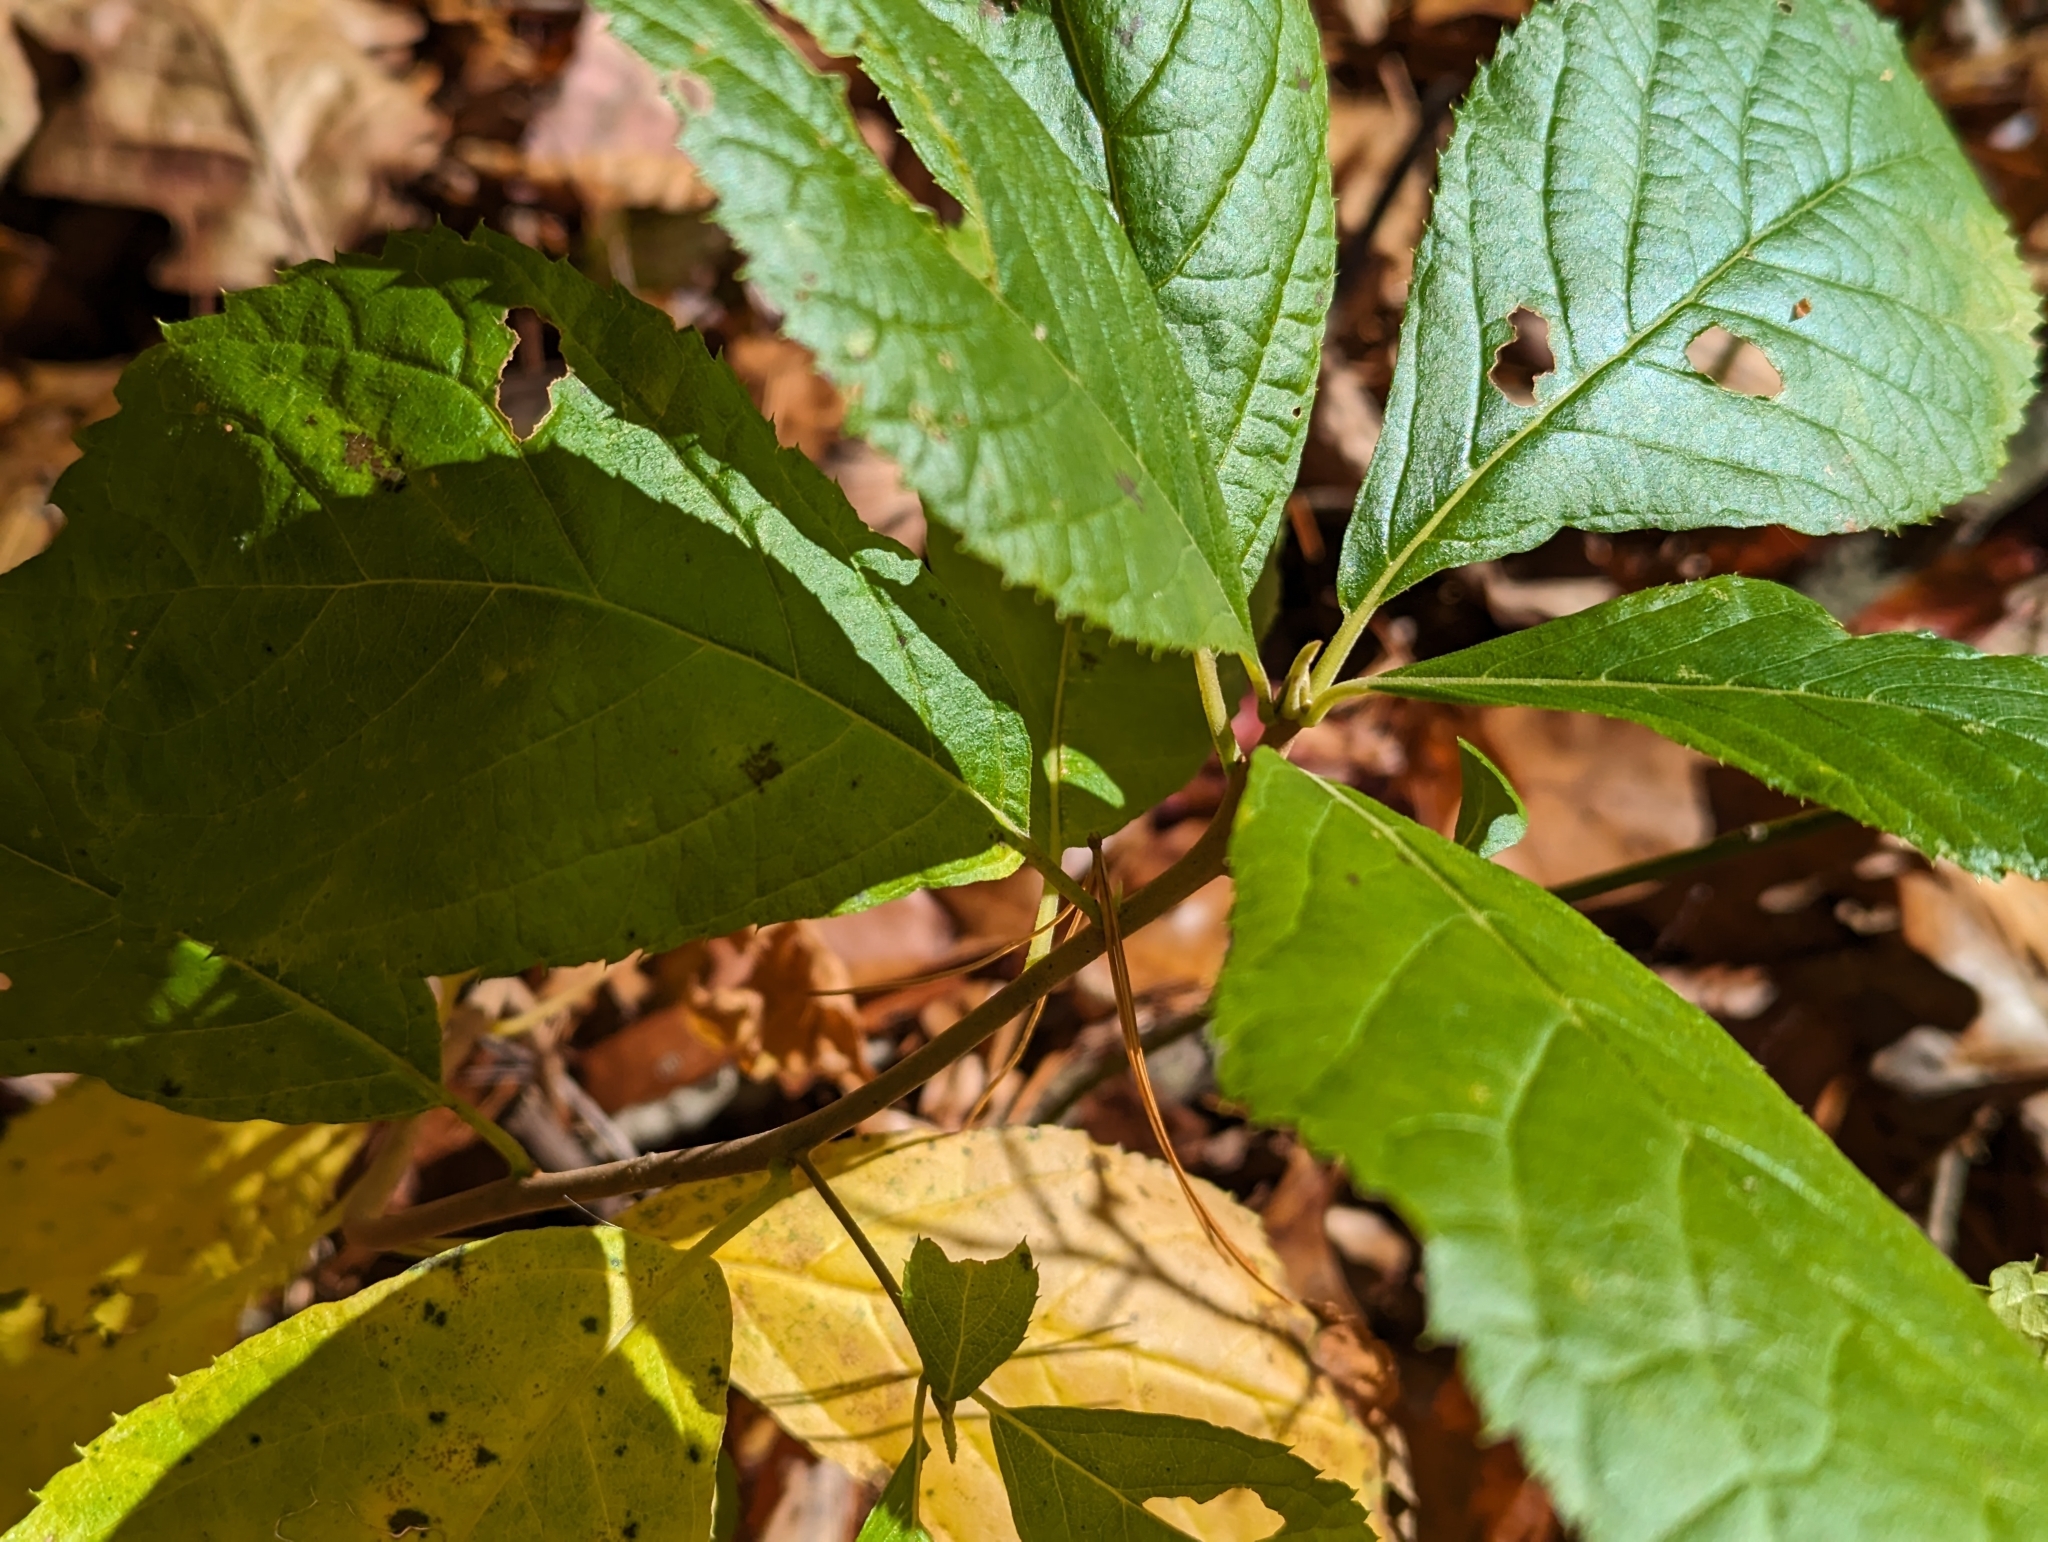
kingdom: Plantae
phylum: Tracheophyta
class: Magnoliopsida
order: Ericales
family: Clethraceae
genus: Clethra
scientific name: Clethra alnifolia
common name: Sweet pepperbush
